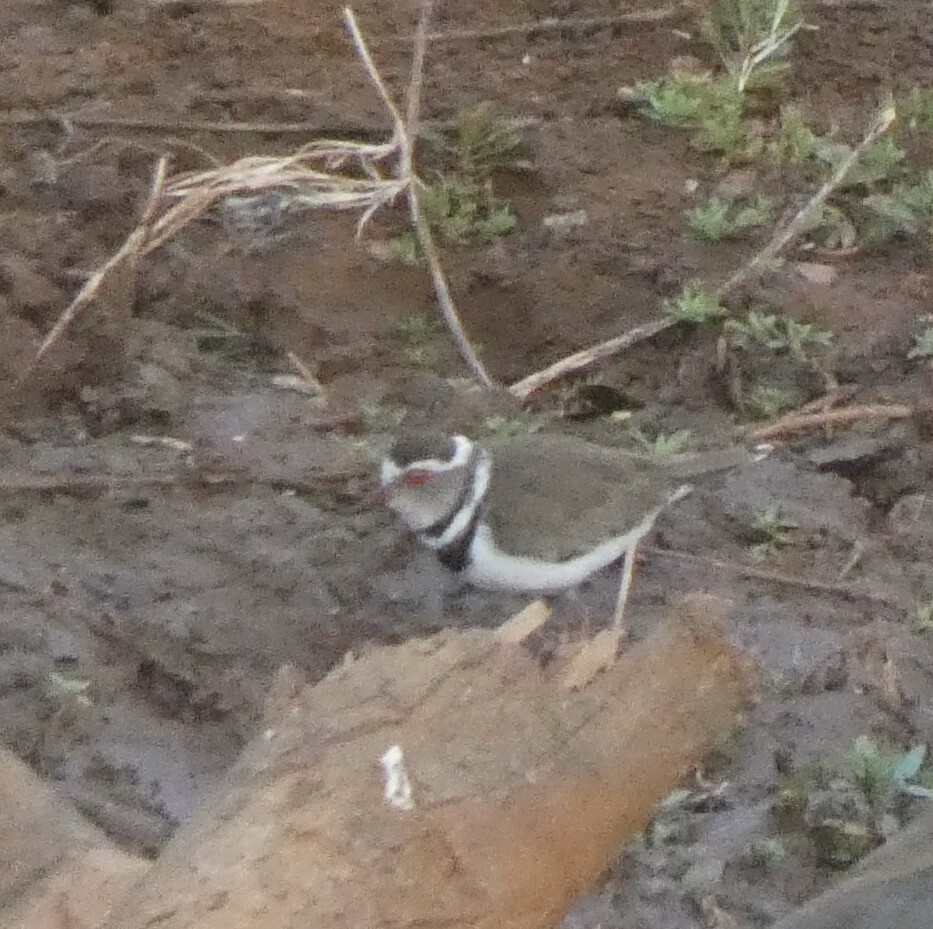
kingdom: Animalia
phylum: Chordata
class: Aves
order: Charadriiformes
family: Charadriidae
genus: Charadrius
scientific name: Charadrius tricollaris
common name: Three-banded plover
